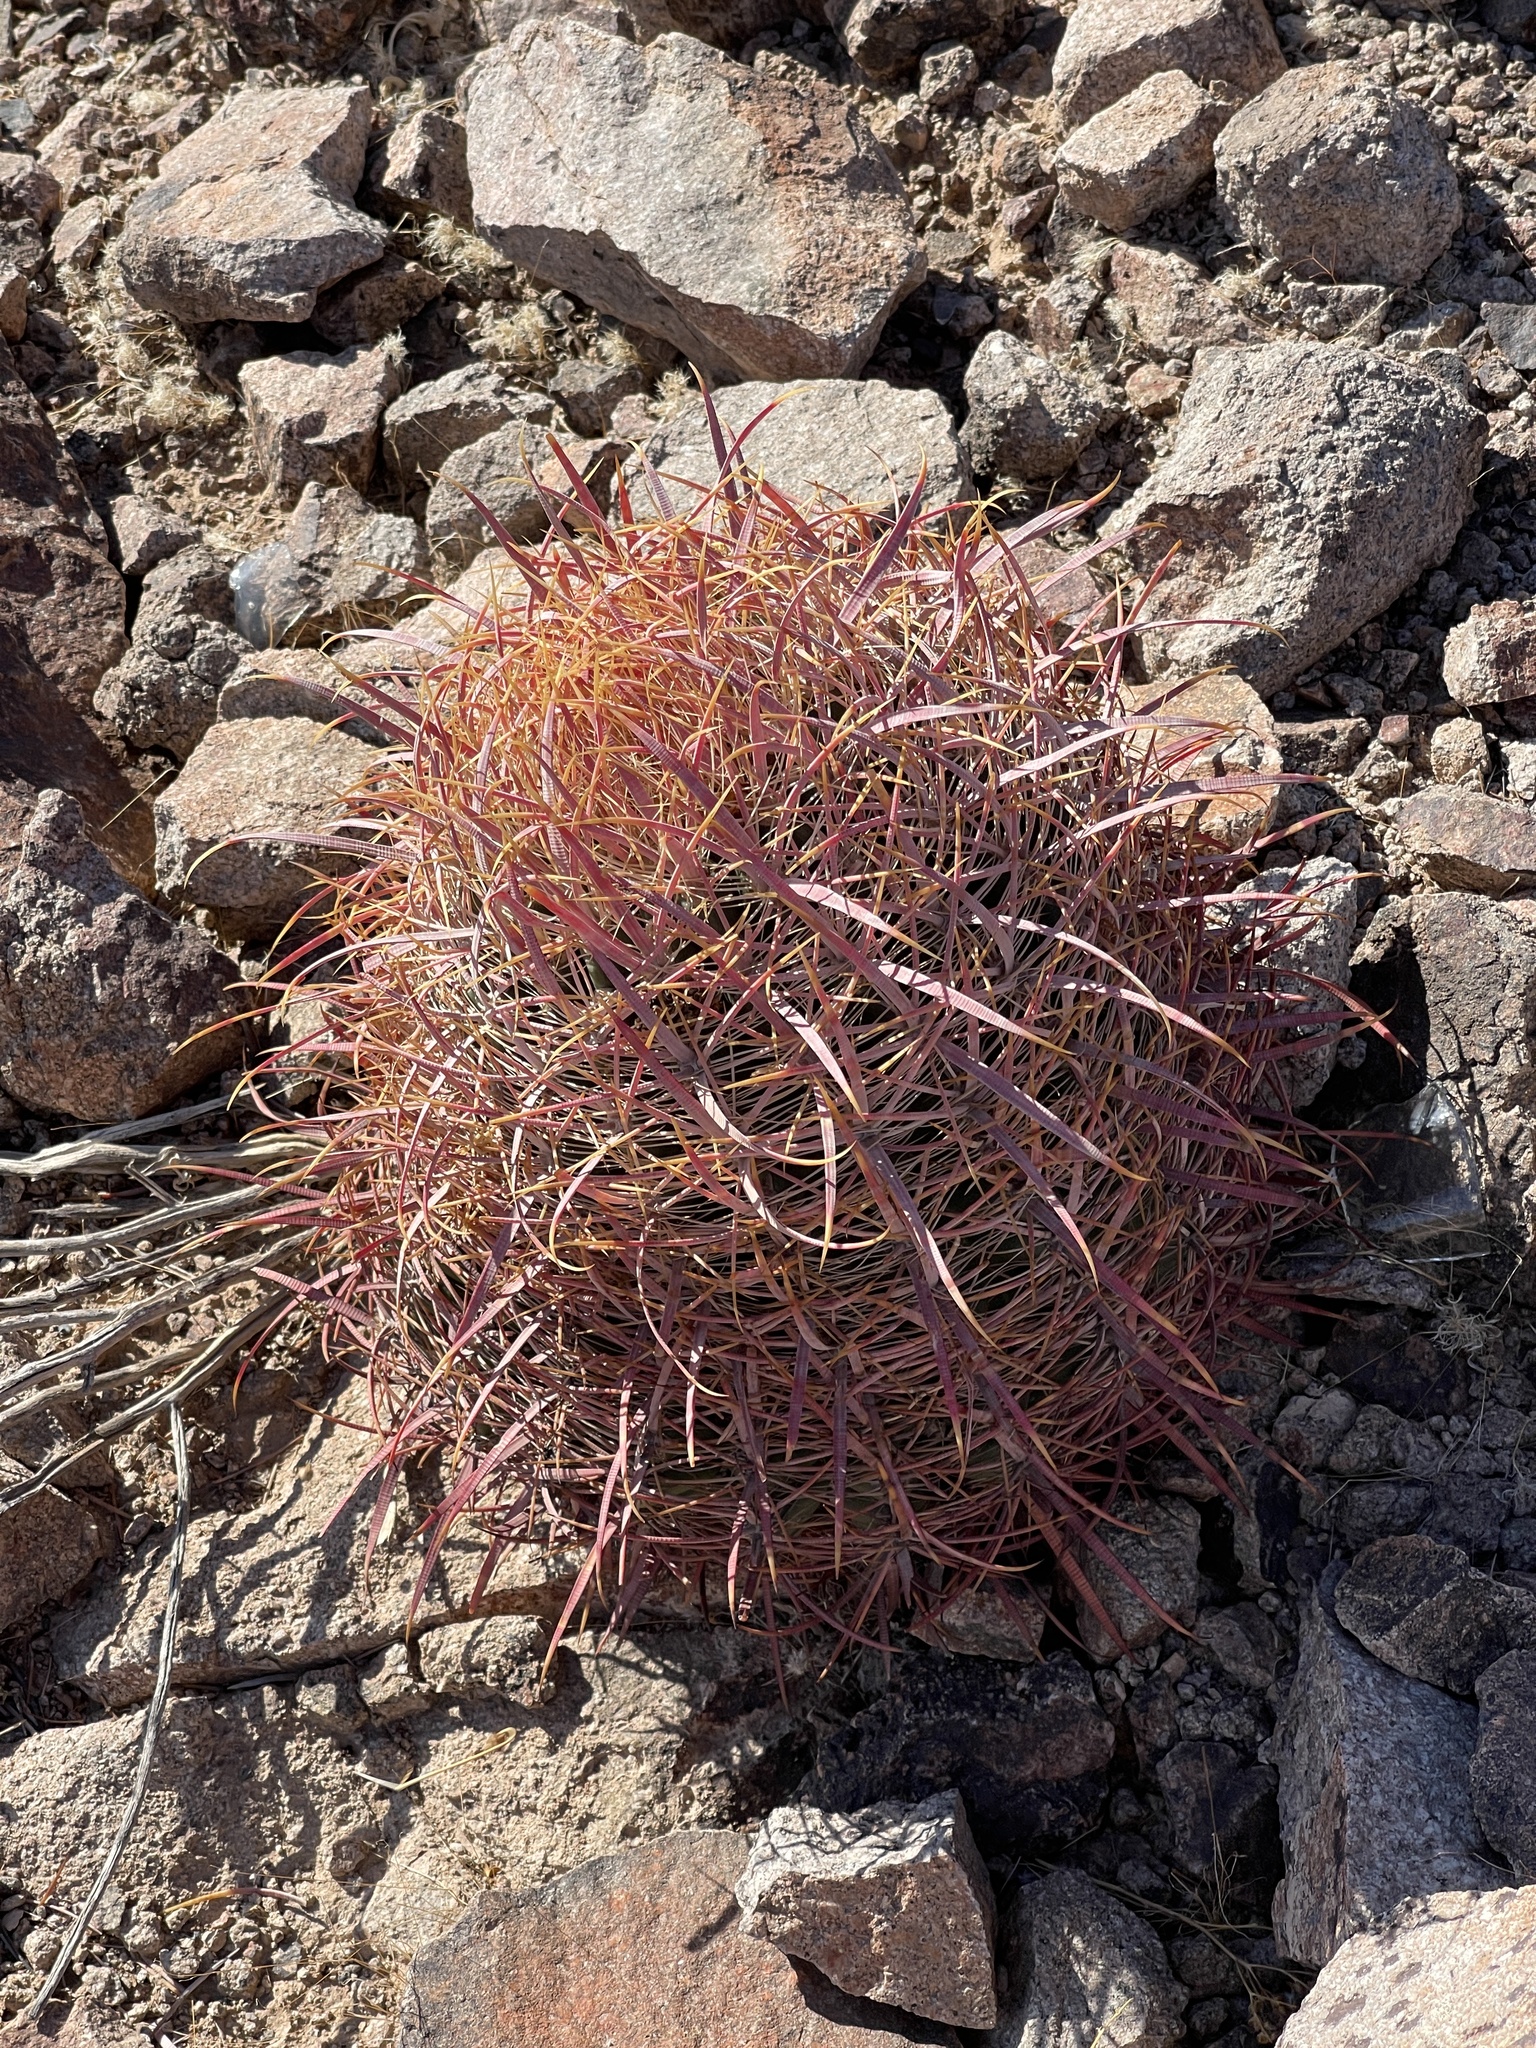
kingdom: Plantae
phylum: Tracheophyta
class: Magnoliopsida
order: Caryophyllales
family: Cactaceae
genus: Ferocactus
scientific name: Ferocactus cylindraceus
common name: California barrel cactus
